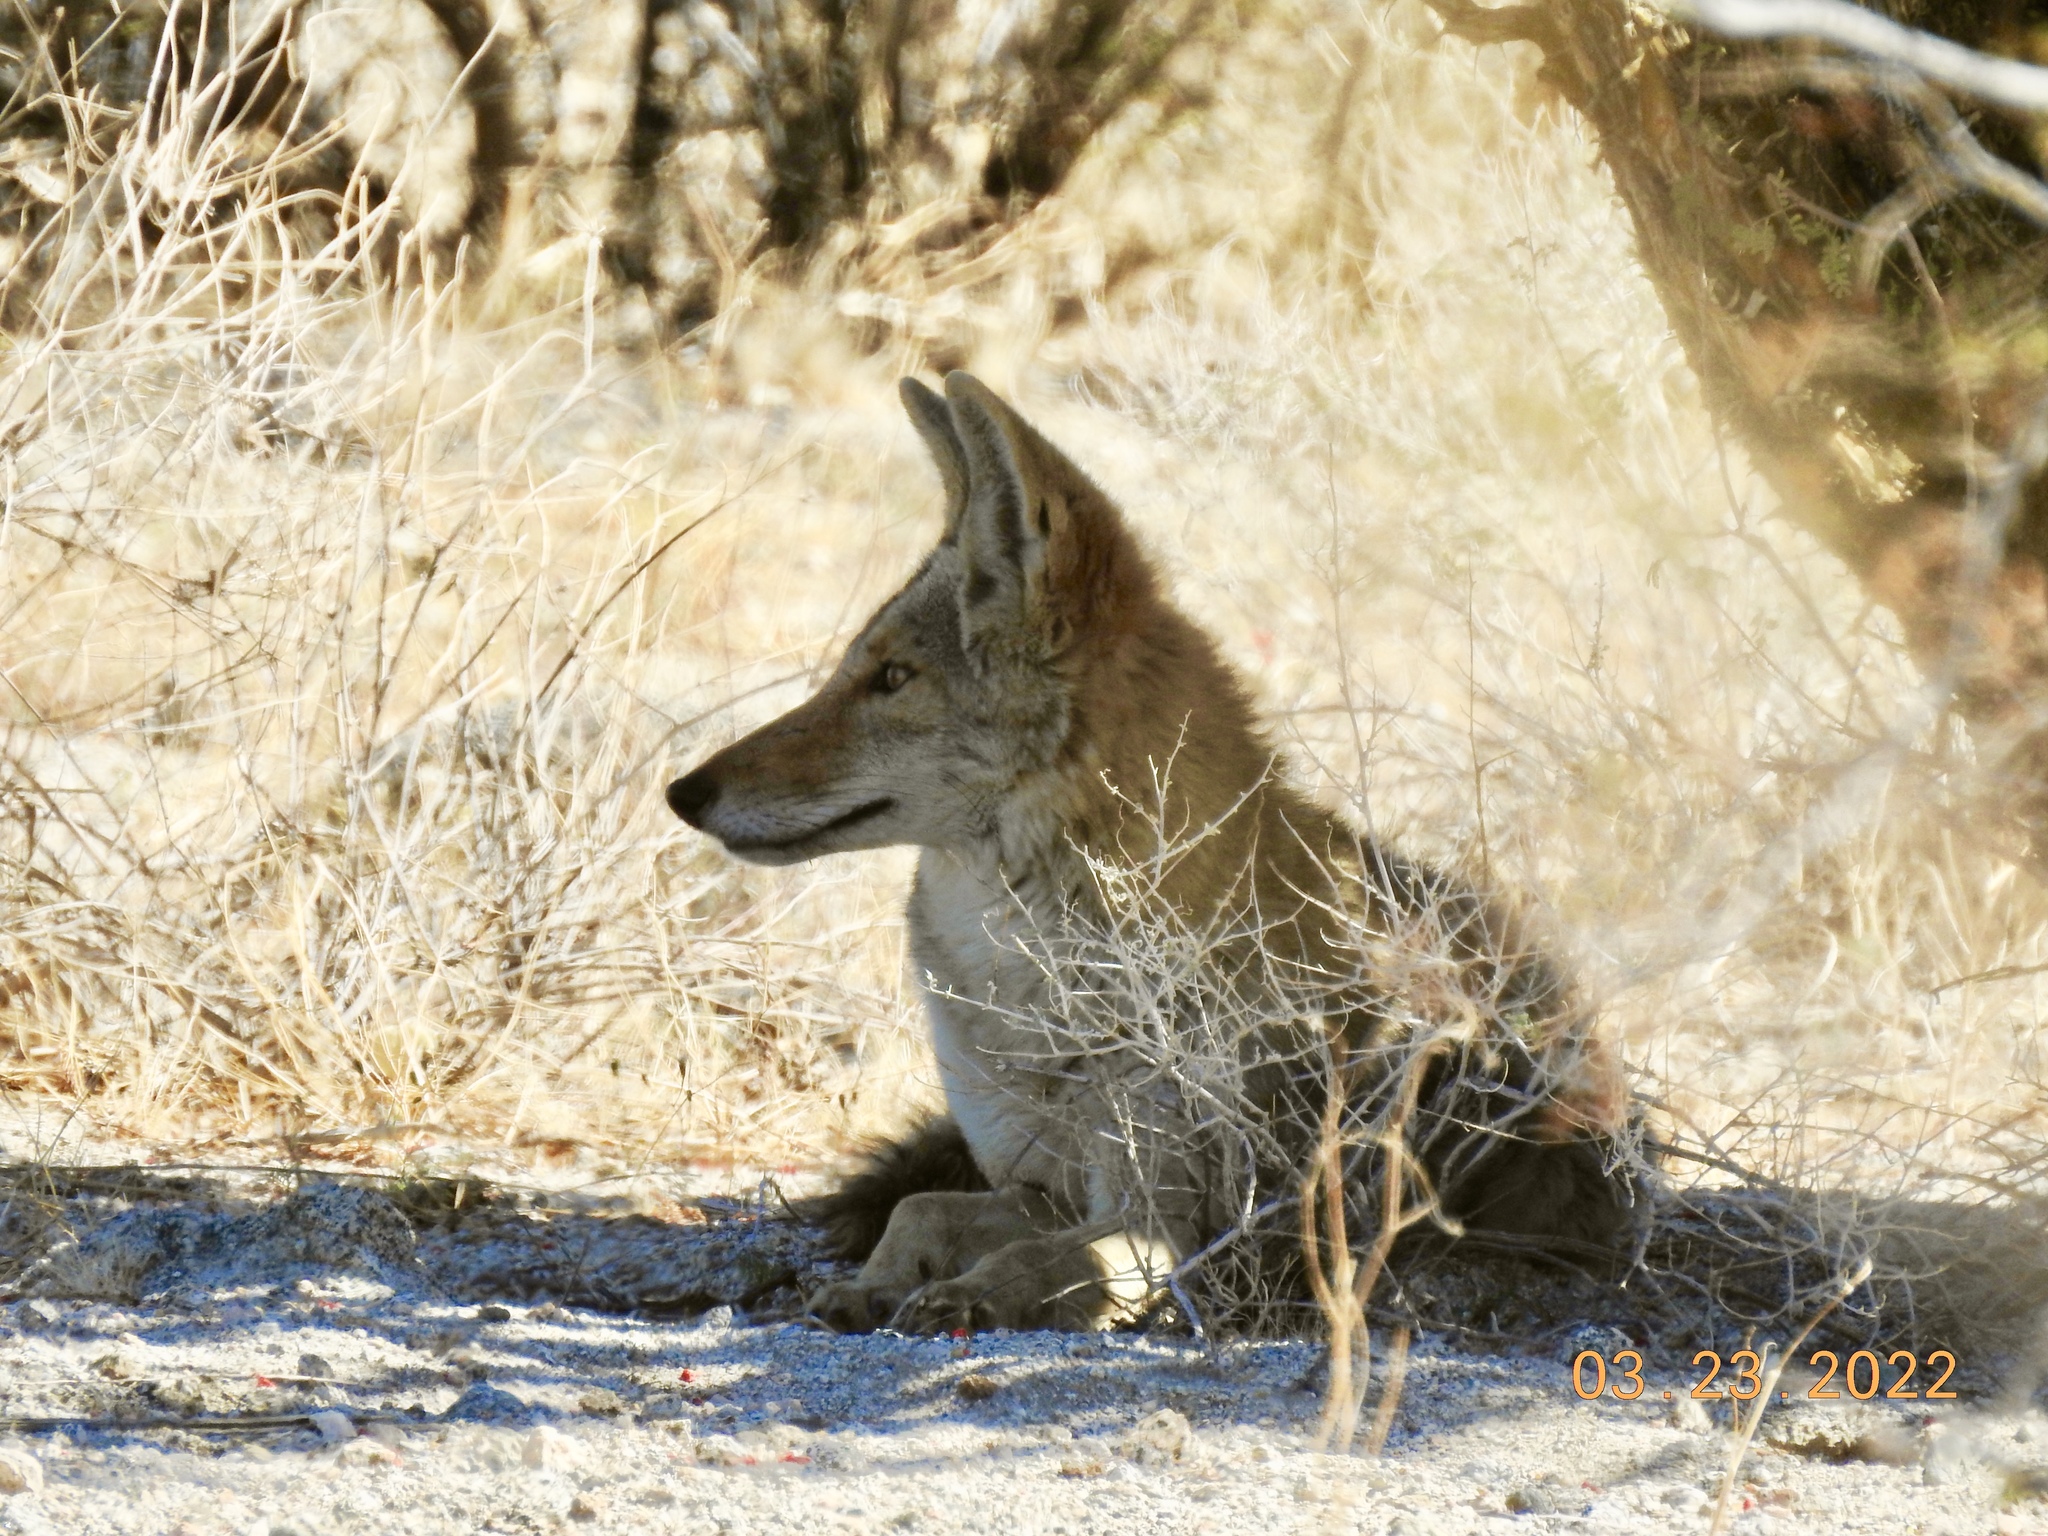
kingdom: Animalia
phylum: Chordata
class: Mammalia
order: Carnivora
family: Canidae
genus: Canis
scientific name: Canis latrans
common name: Coyote
